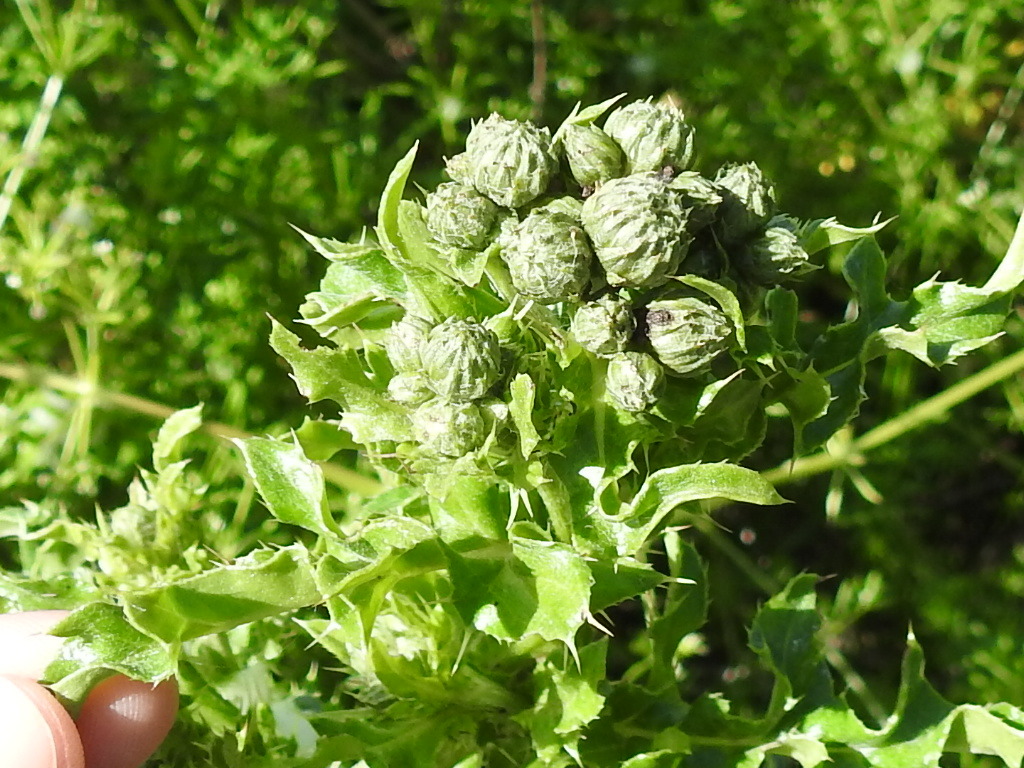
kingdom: Plantae
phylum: Tracheophyta
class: Magnoliopsida
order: Asterales
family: Asteraceae
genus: Cirsium
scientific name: Cirsium arvense
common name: Creeping thistle
